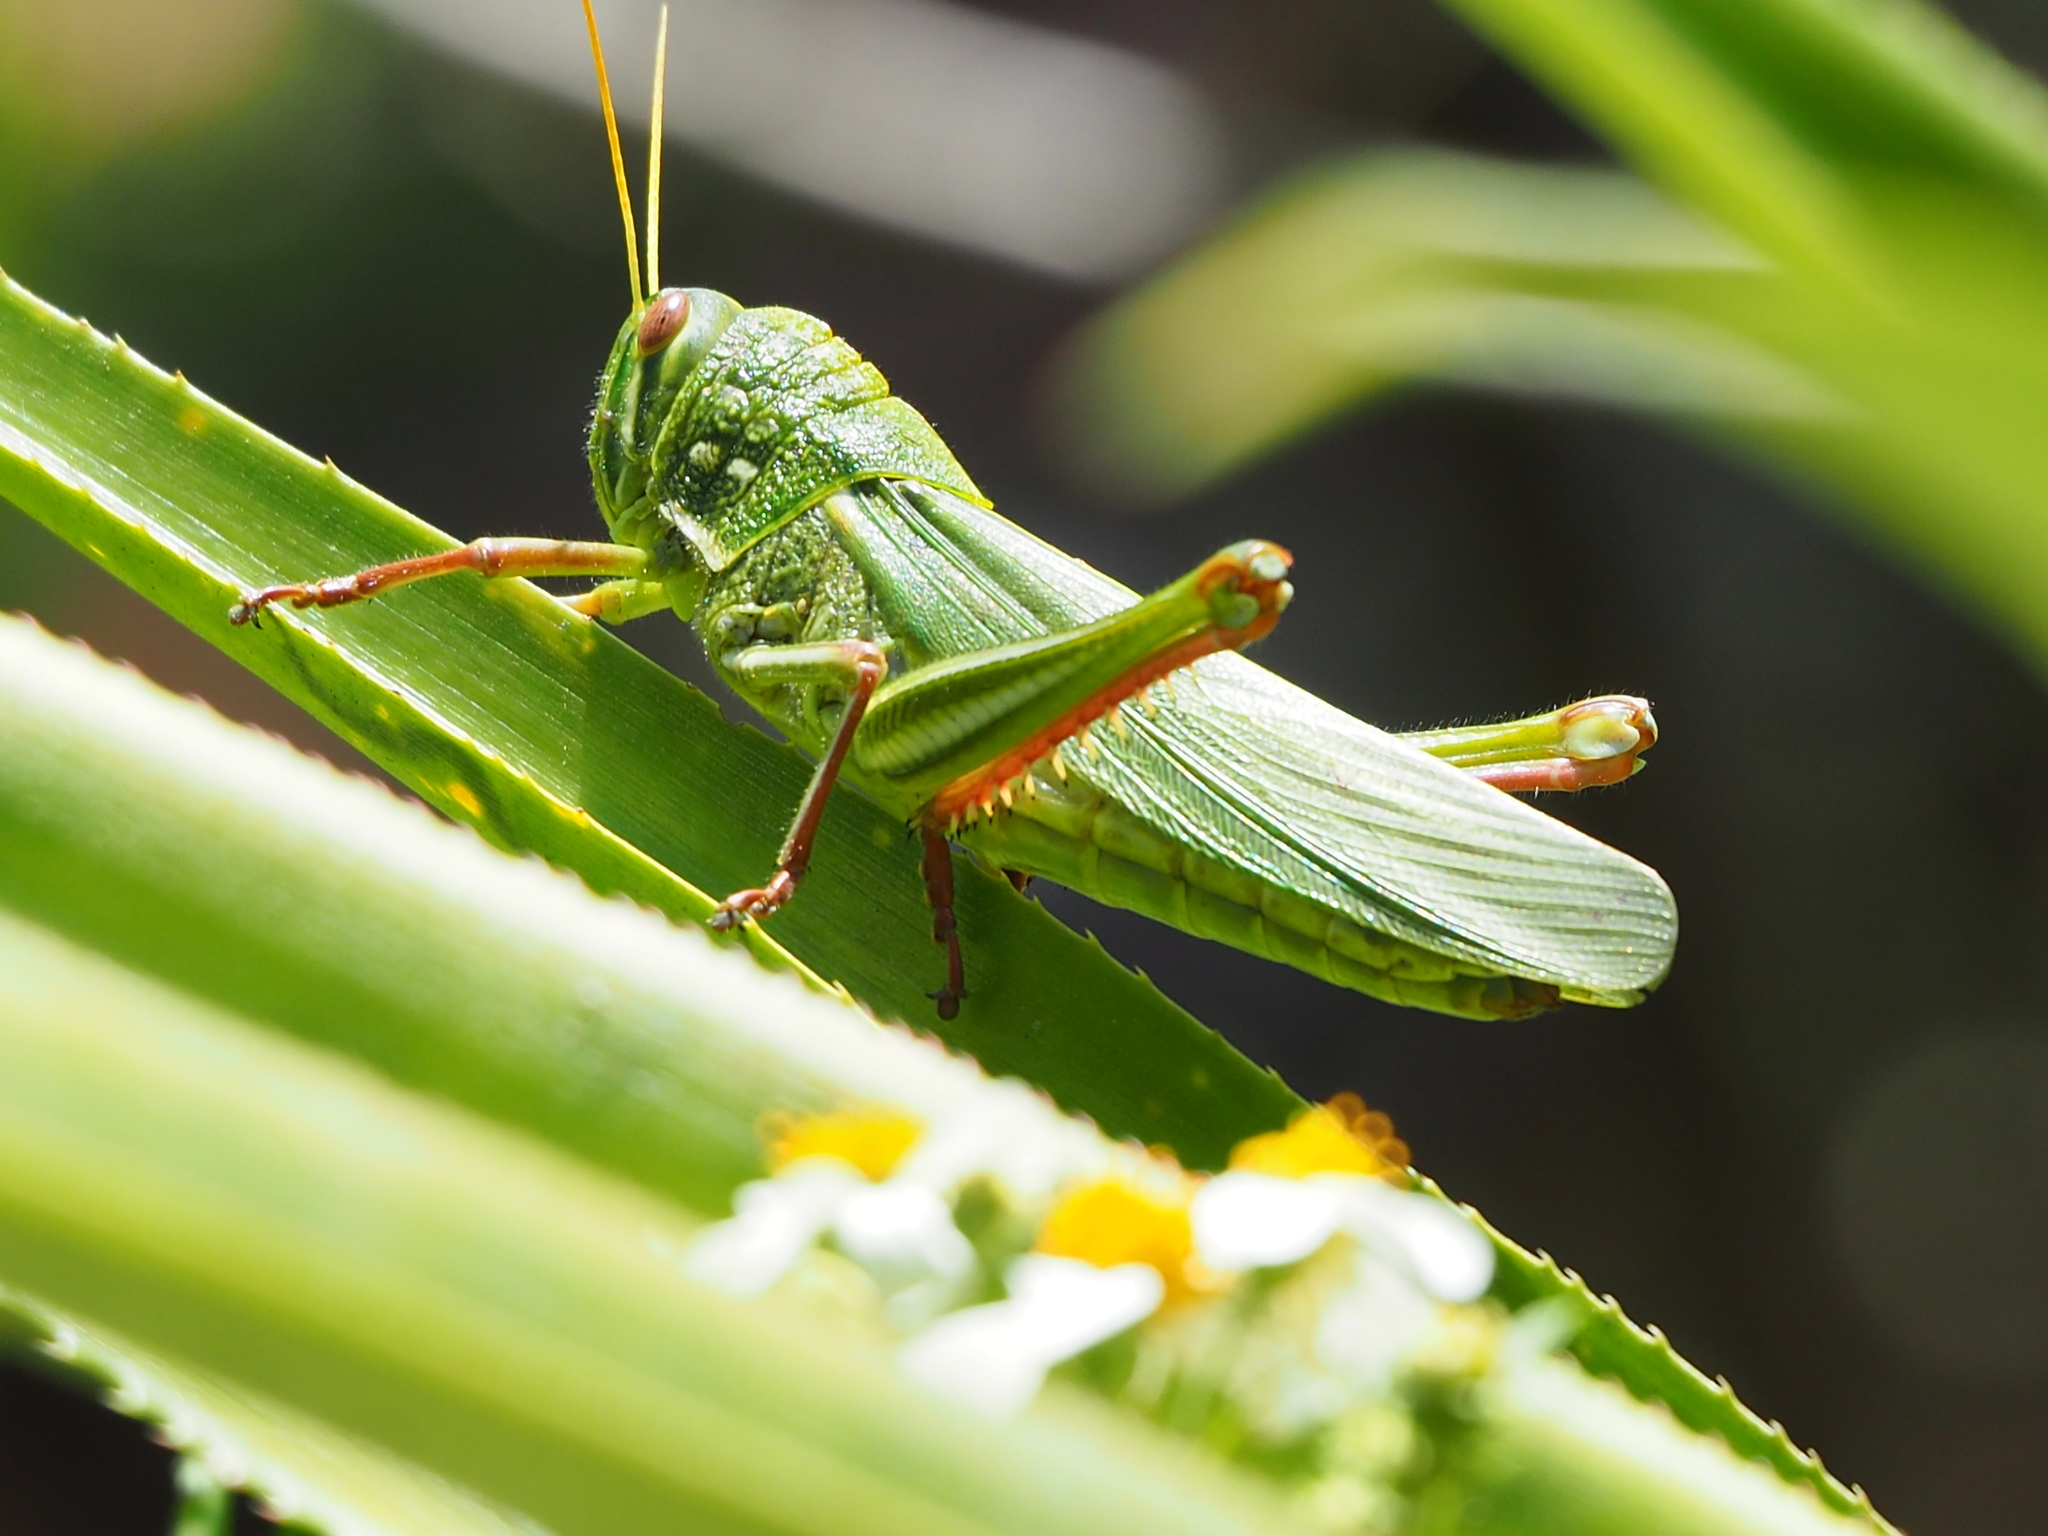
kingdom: Animalia
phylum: Arthropoda
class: Insecta
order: Orthoptera
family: Acrididae
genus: Chondracris
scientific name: Chondracris rosea
